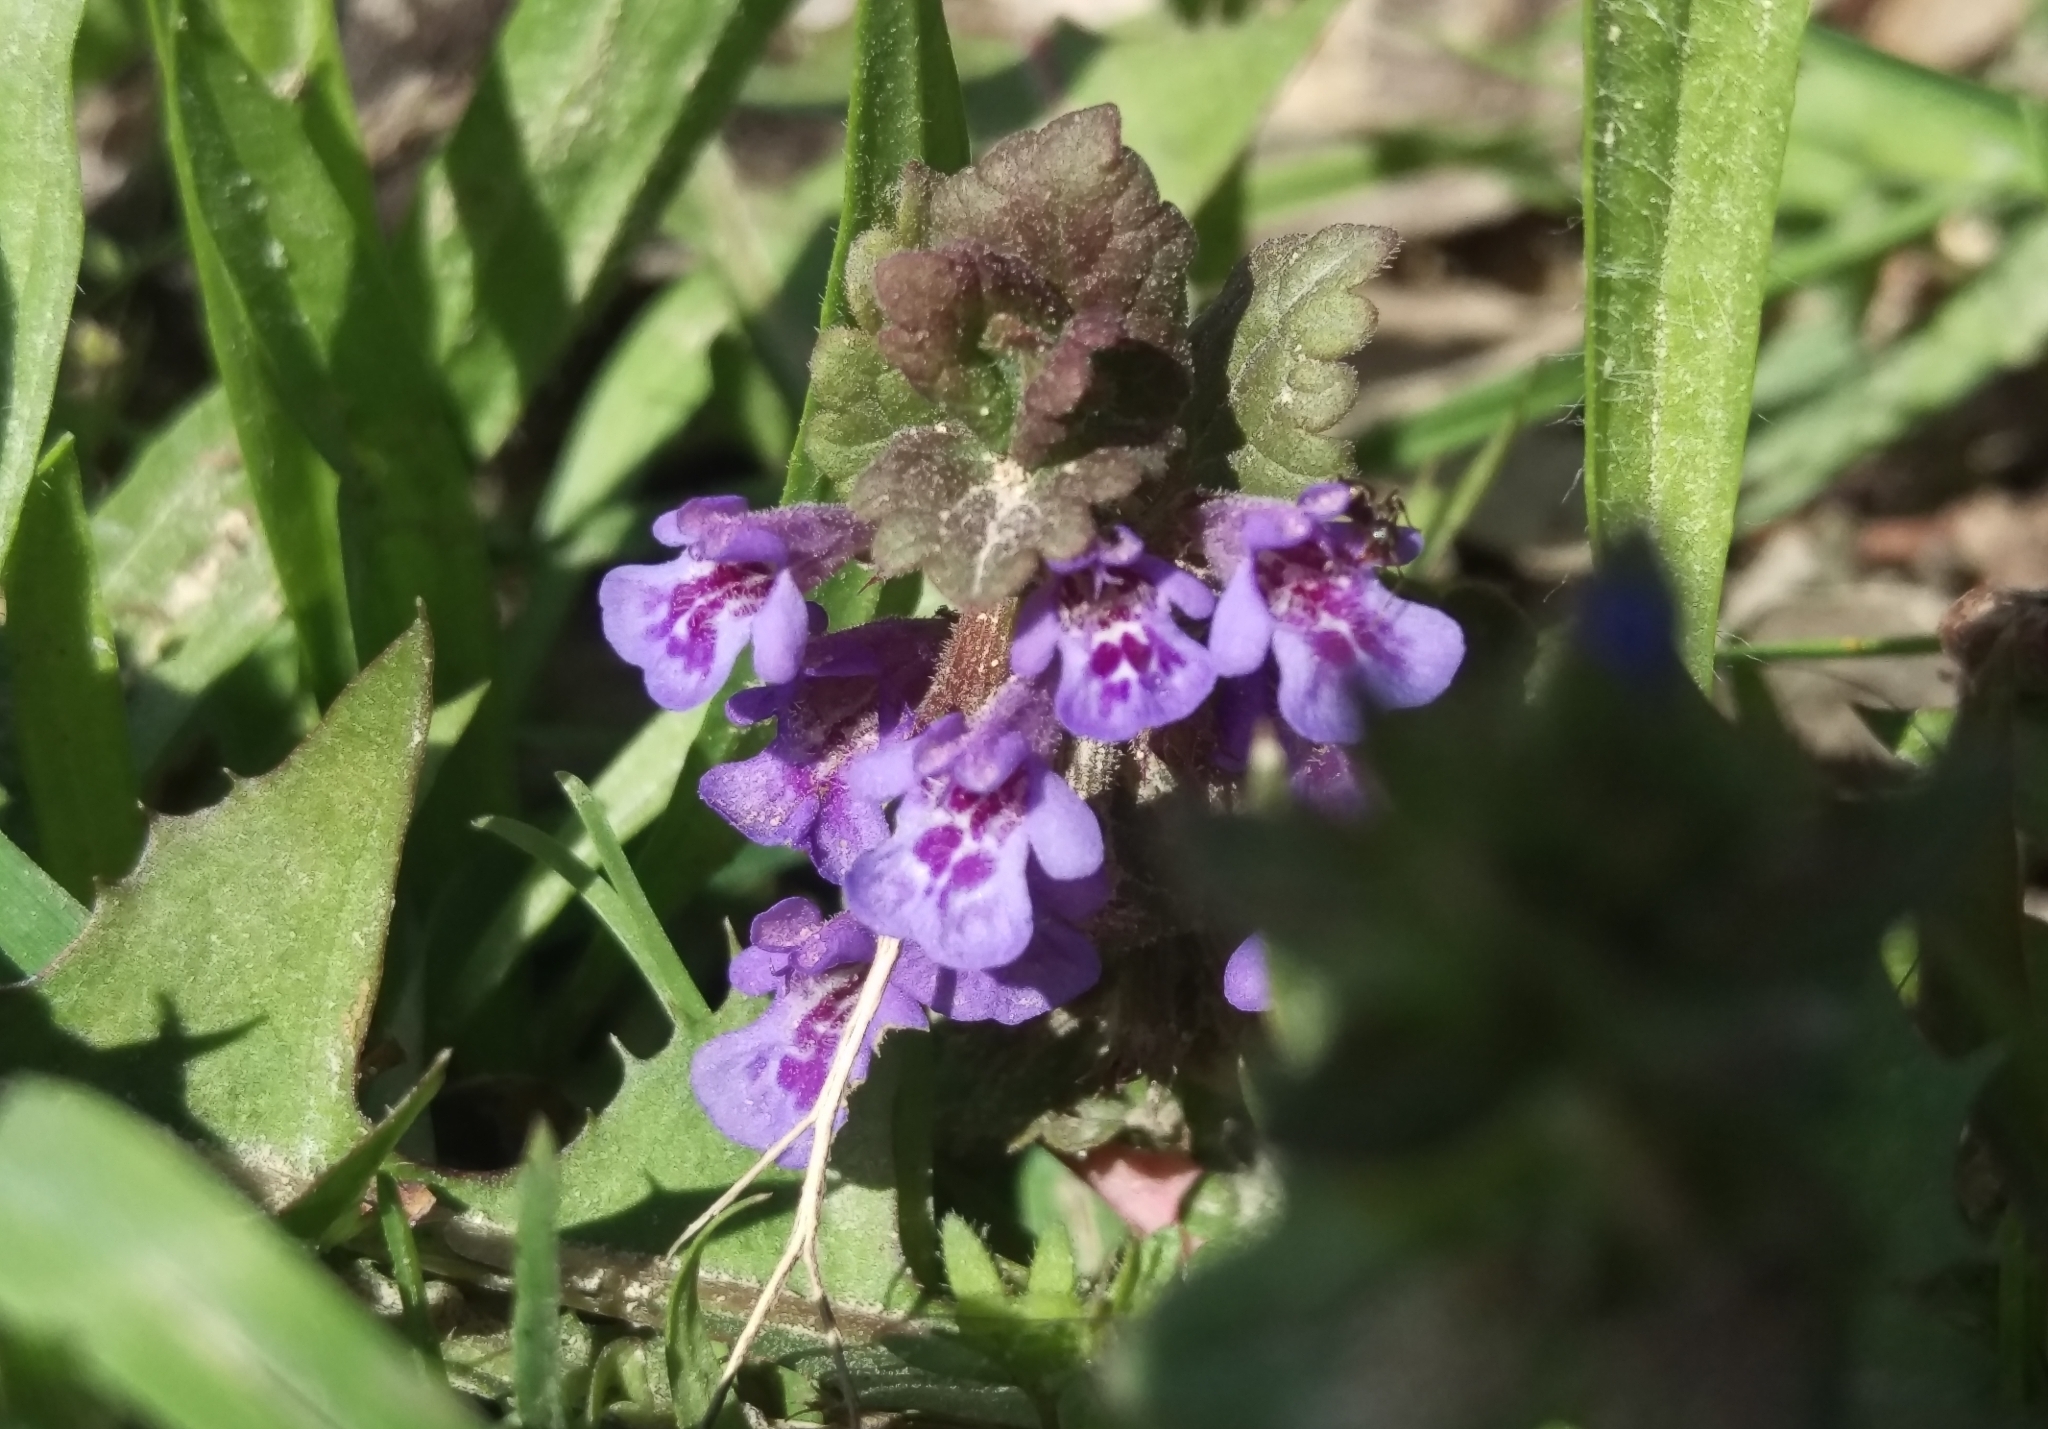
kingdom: Plantae
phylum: Tracheophyta
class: Magnoliopsida
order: Lamiales
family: Lamiaceae
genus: Glechoma
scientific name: Glechoma hederacea
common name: Ground ivy
